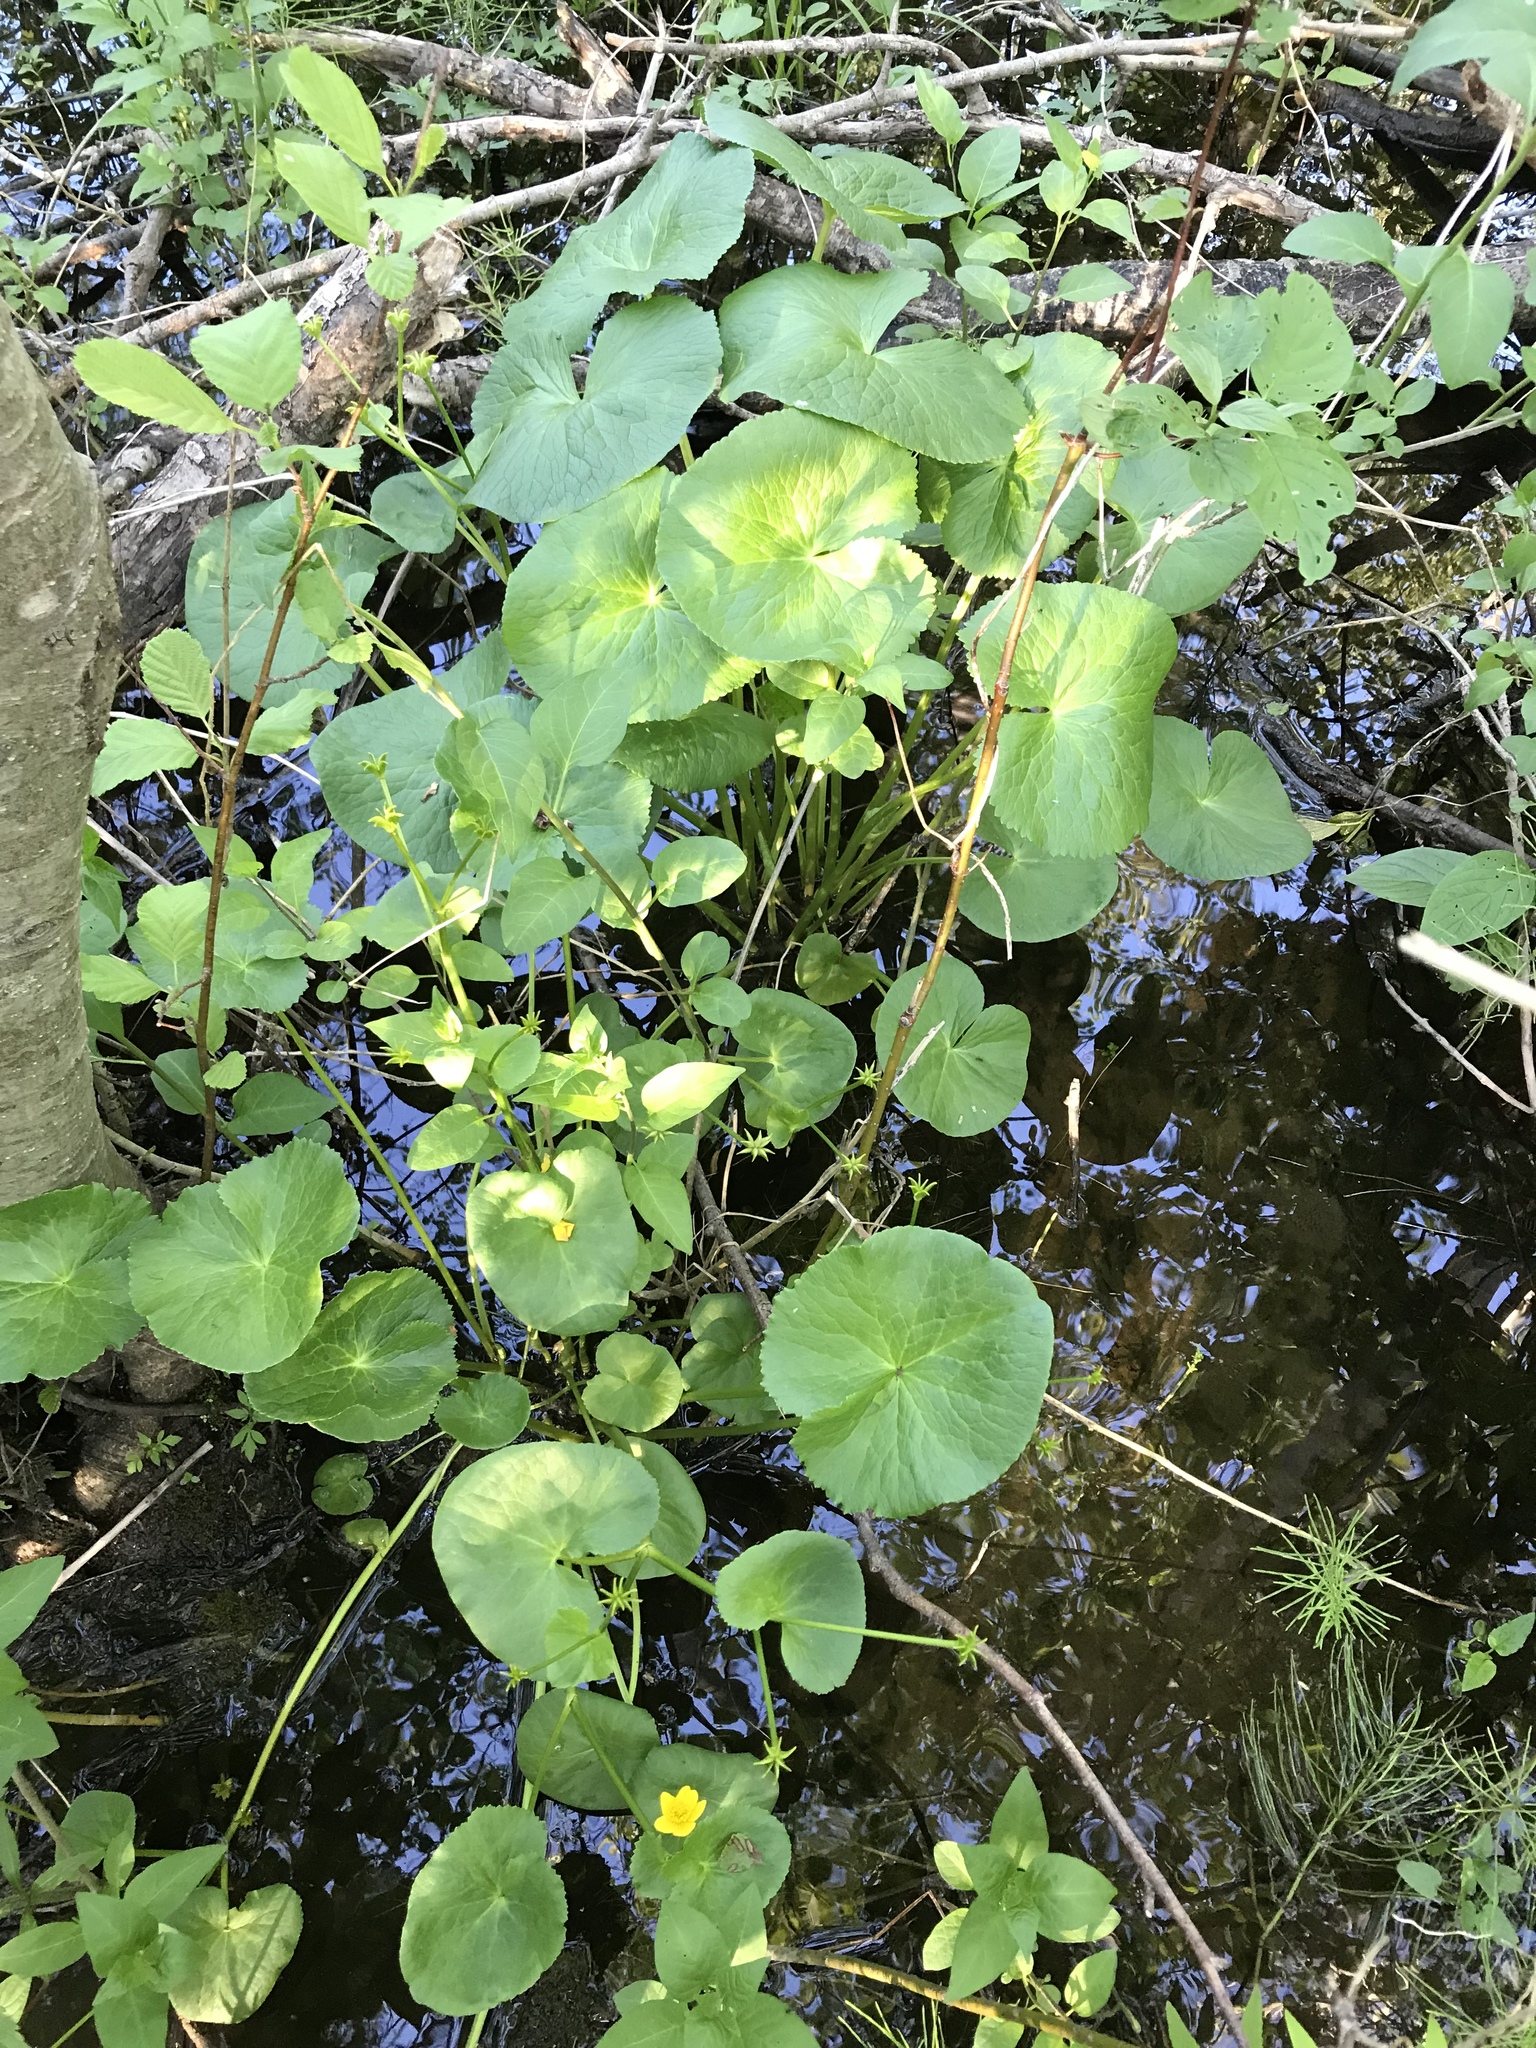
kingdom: Plantae
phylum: Tracheophyta
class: Magnoliopsida
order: Ranunculales
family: Ranunculaceae
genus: Caltha
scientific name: Caltha palustris
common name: Marsh marigold
